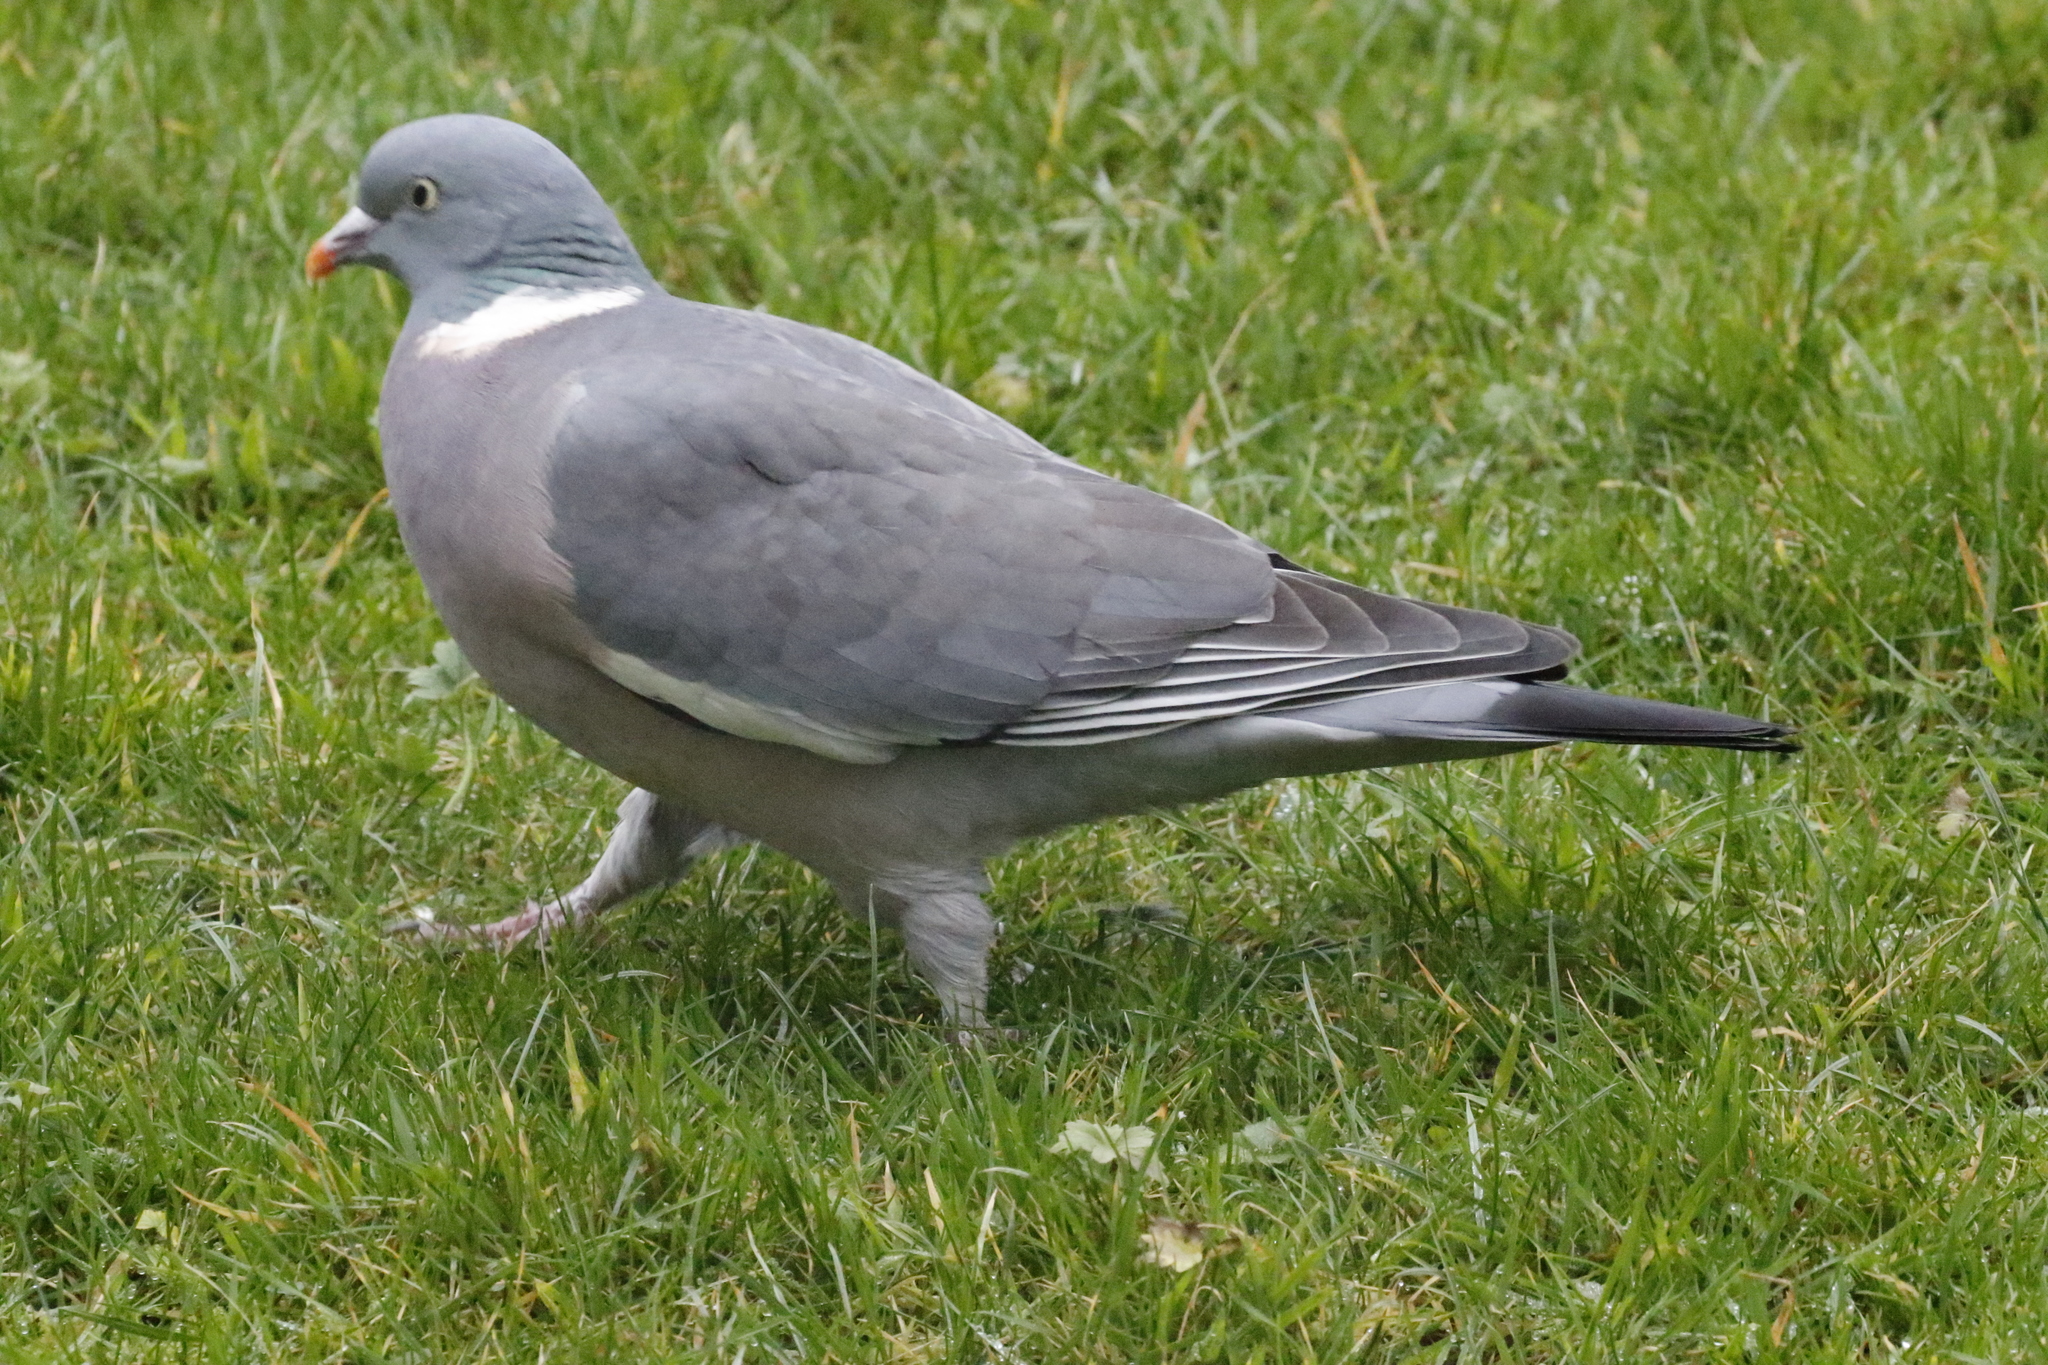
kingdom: Animalia
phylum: Chordata
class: Aves
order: Columbiformes
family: Columbidae
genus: Columba
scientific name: Columba palumbus
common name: Common wood pigeon
